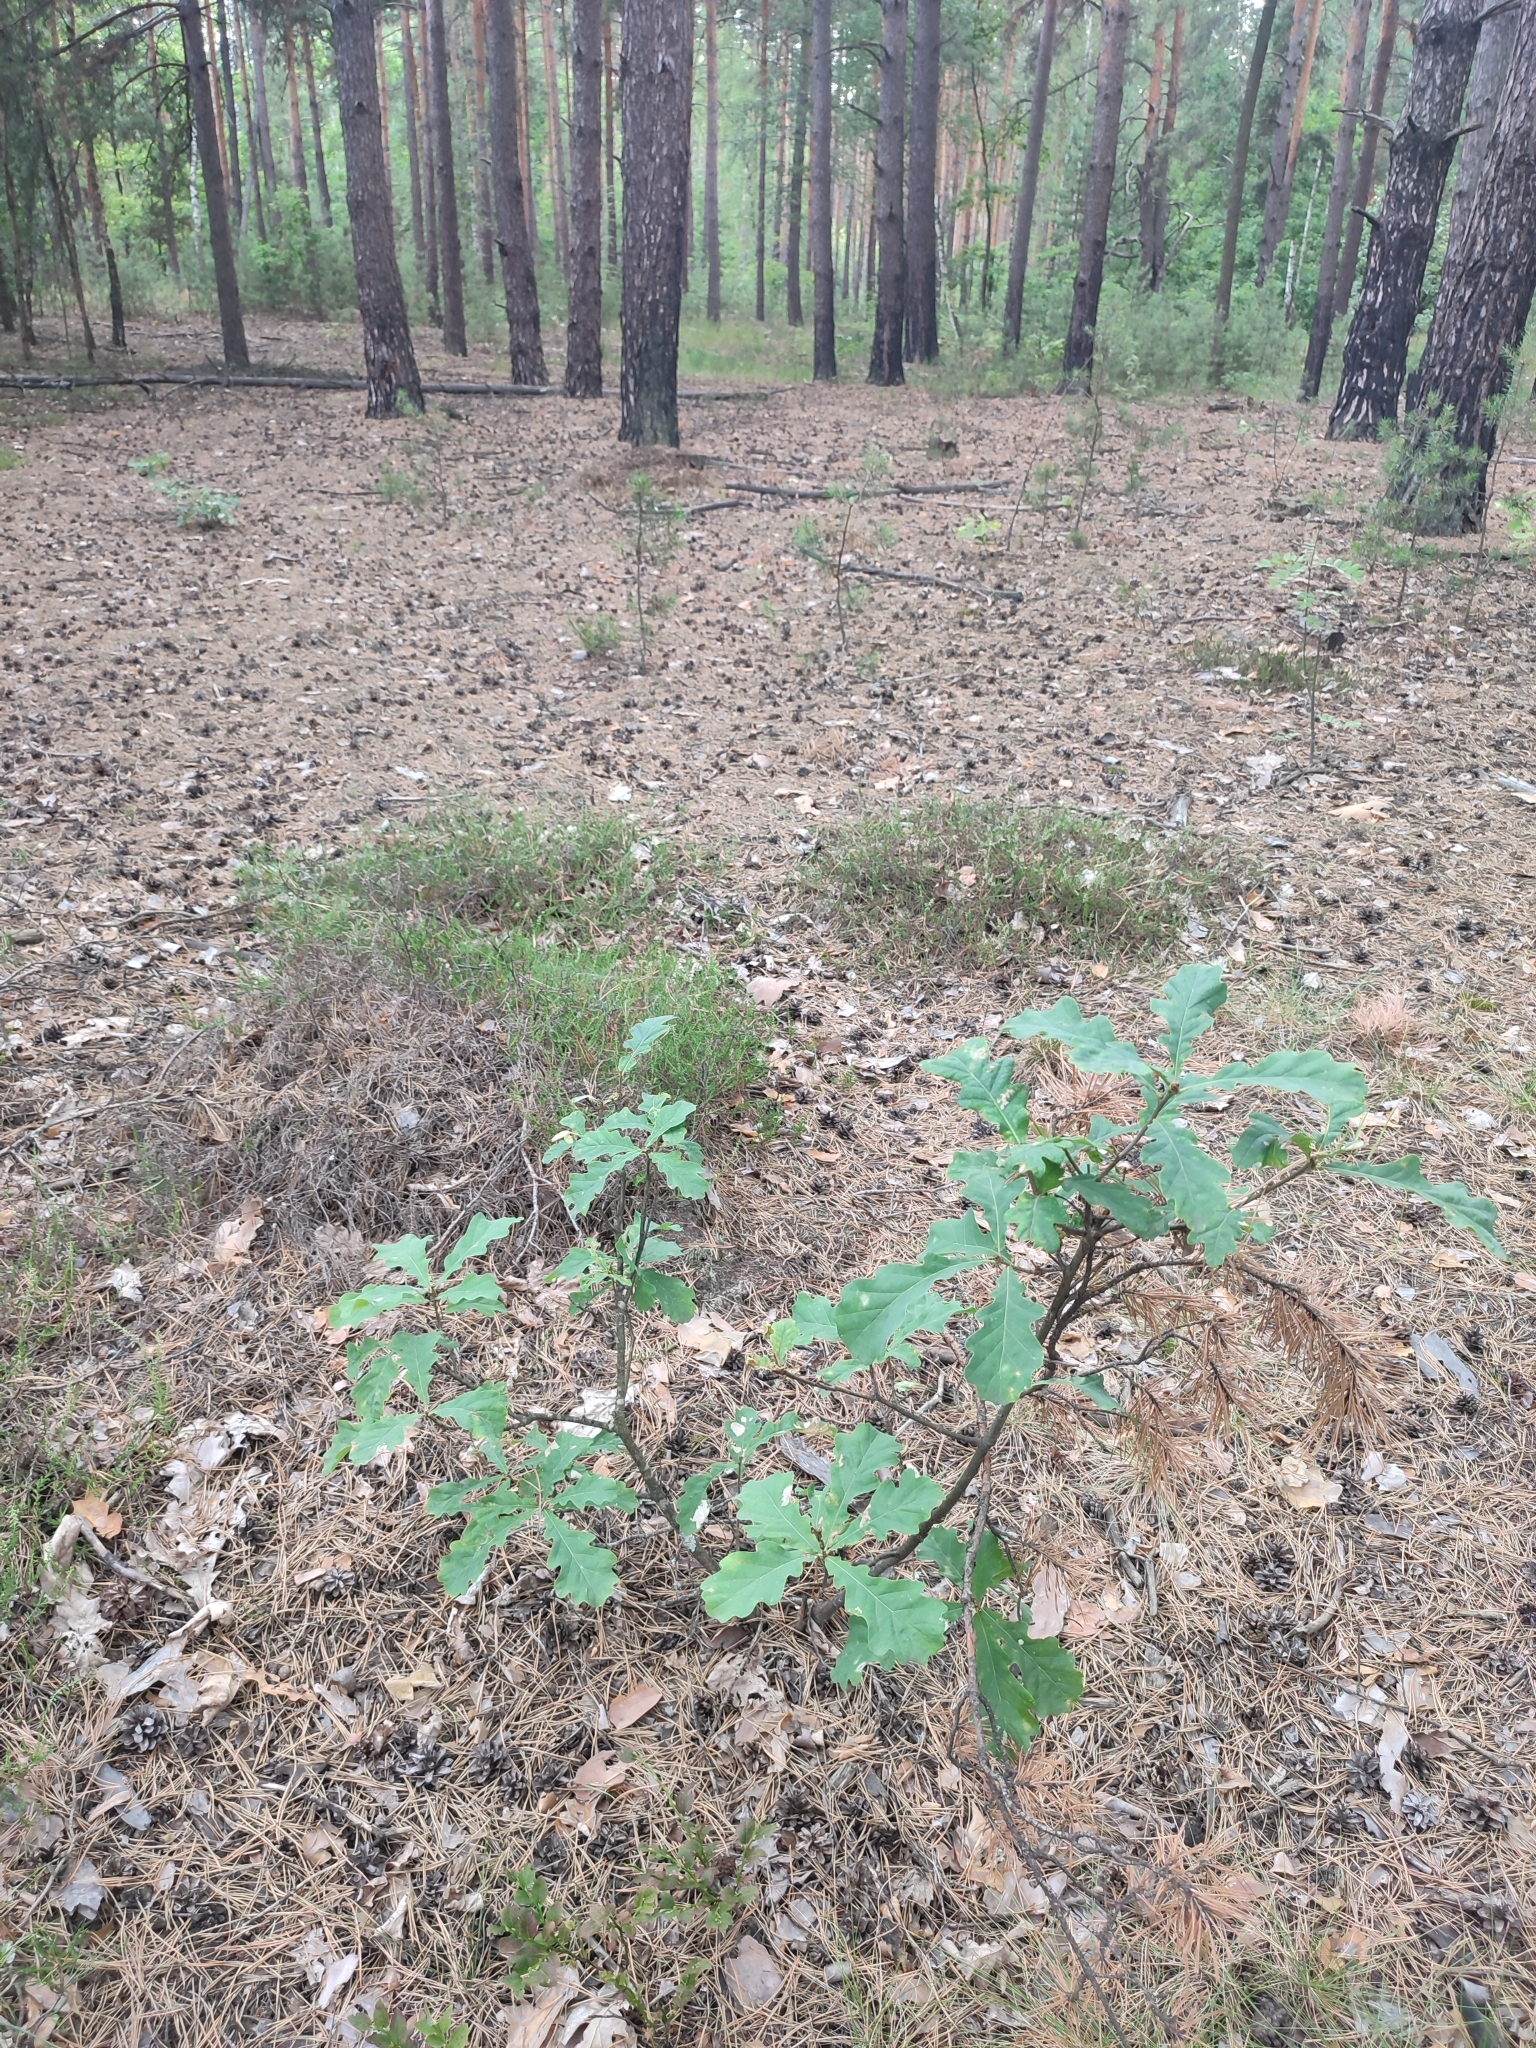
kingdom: Plantae
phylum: Tracheophyta
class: Magnoliopsida
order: Fagales
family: Fagaceae
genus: Quercus
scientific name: Quercus robur
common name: Pedunculate oak
